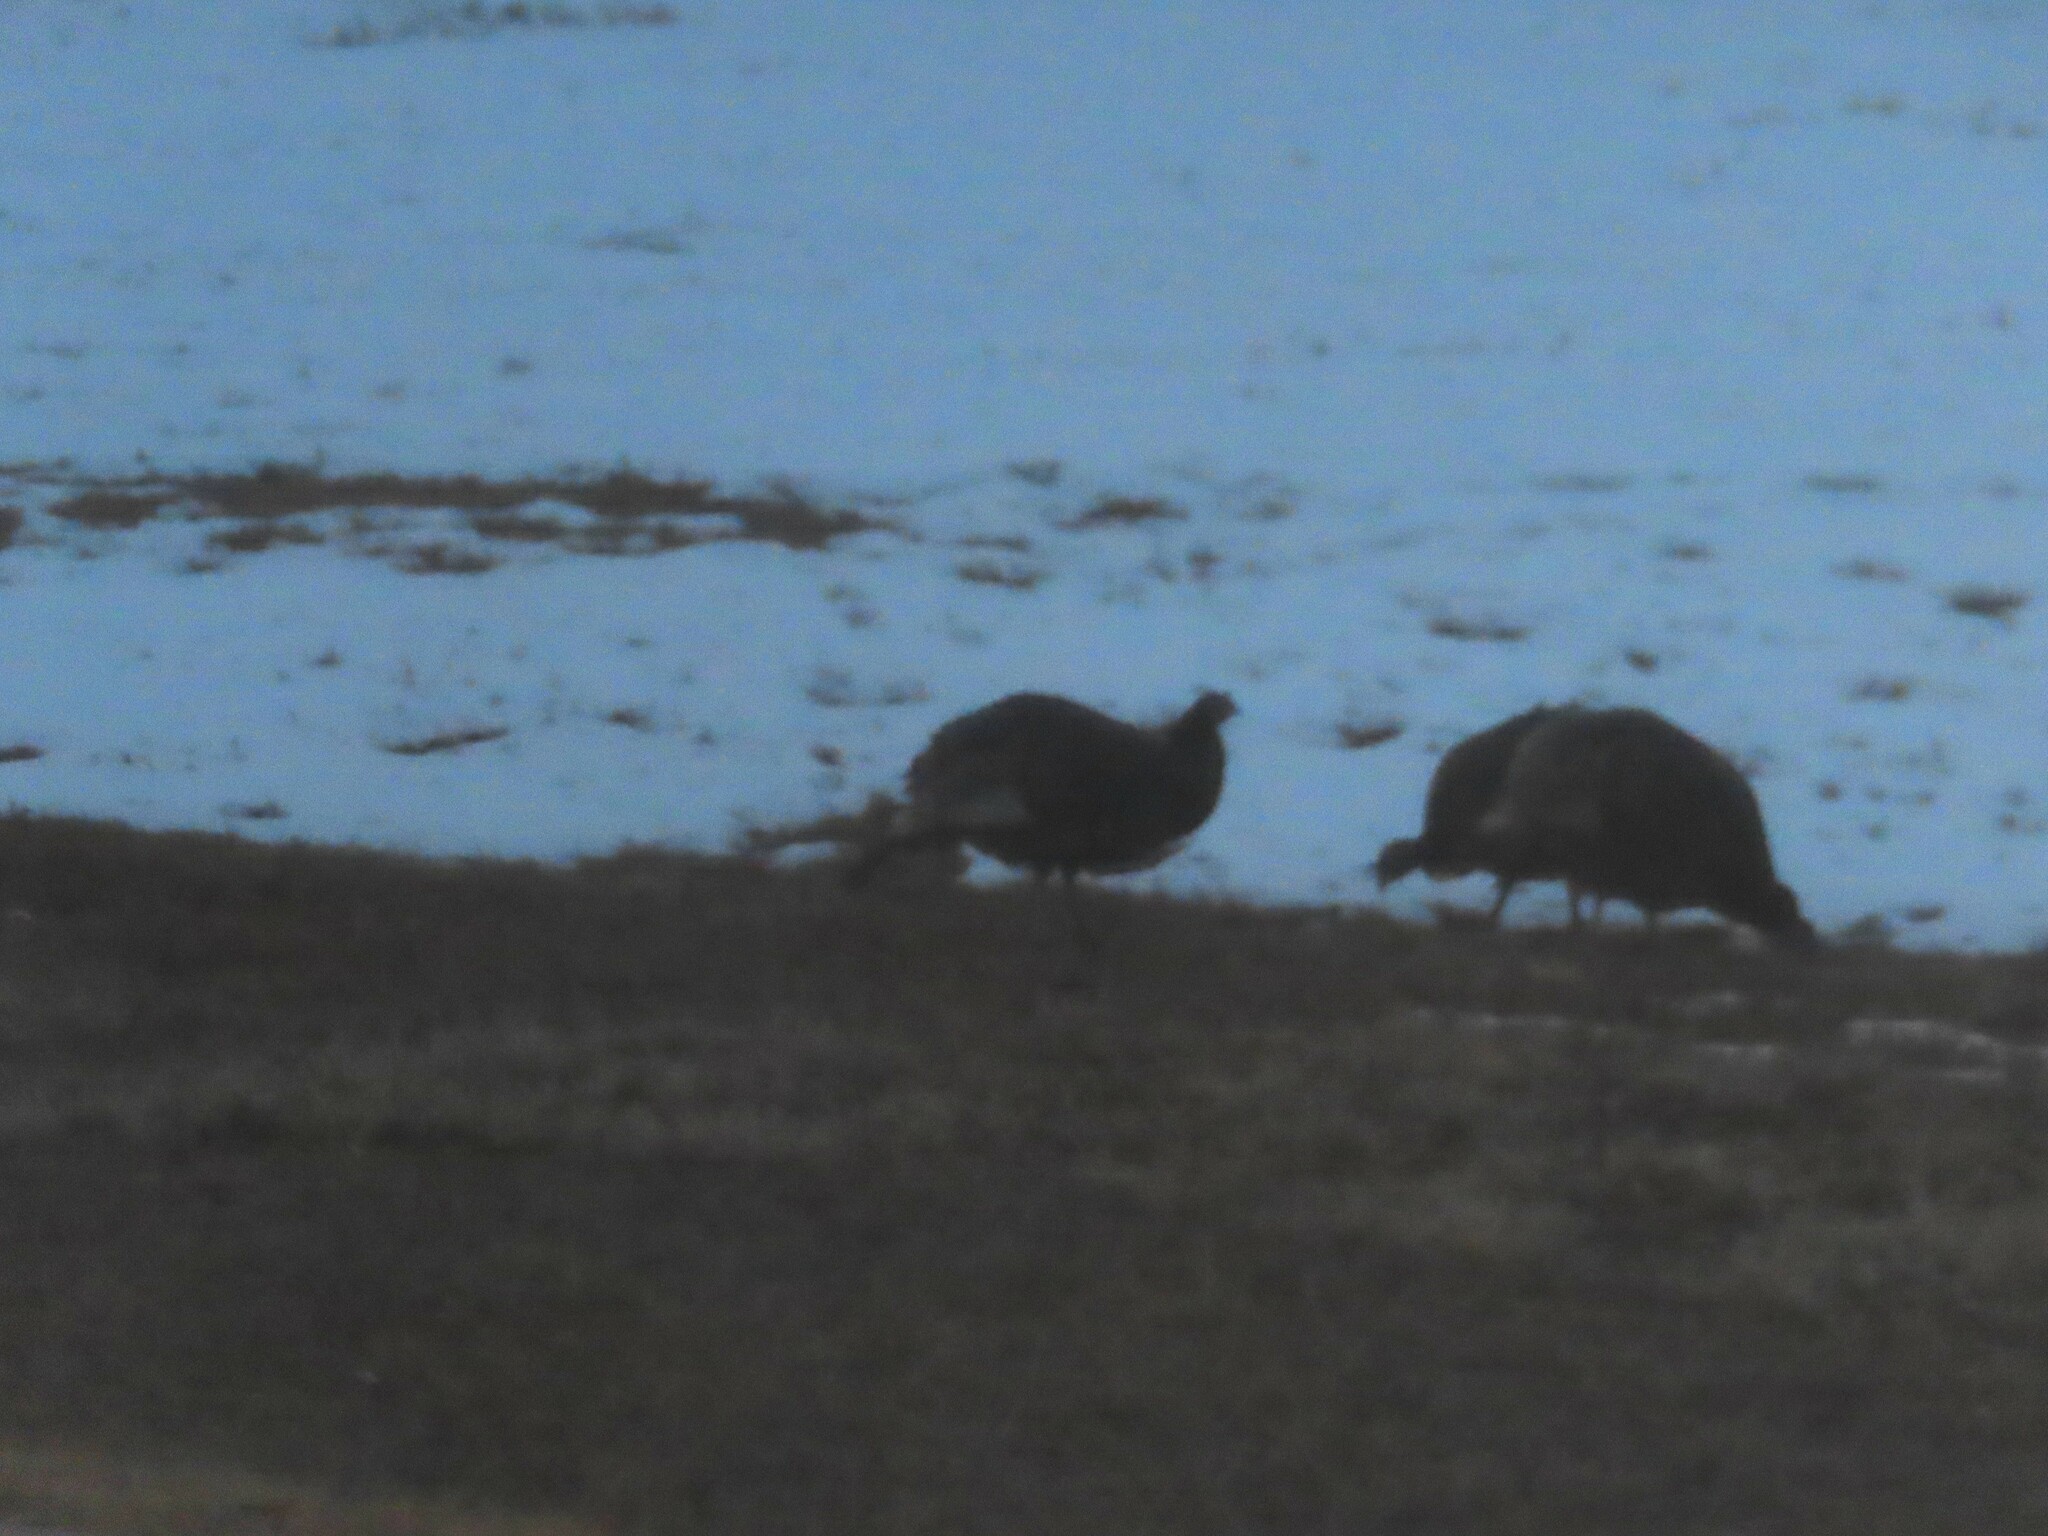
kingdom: Animalia
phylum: Chordata
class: Aves
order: Galliformes
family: Phasianidae
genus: Meleagris
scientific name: Meleagris gallopavo
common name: Wild turkey
